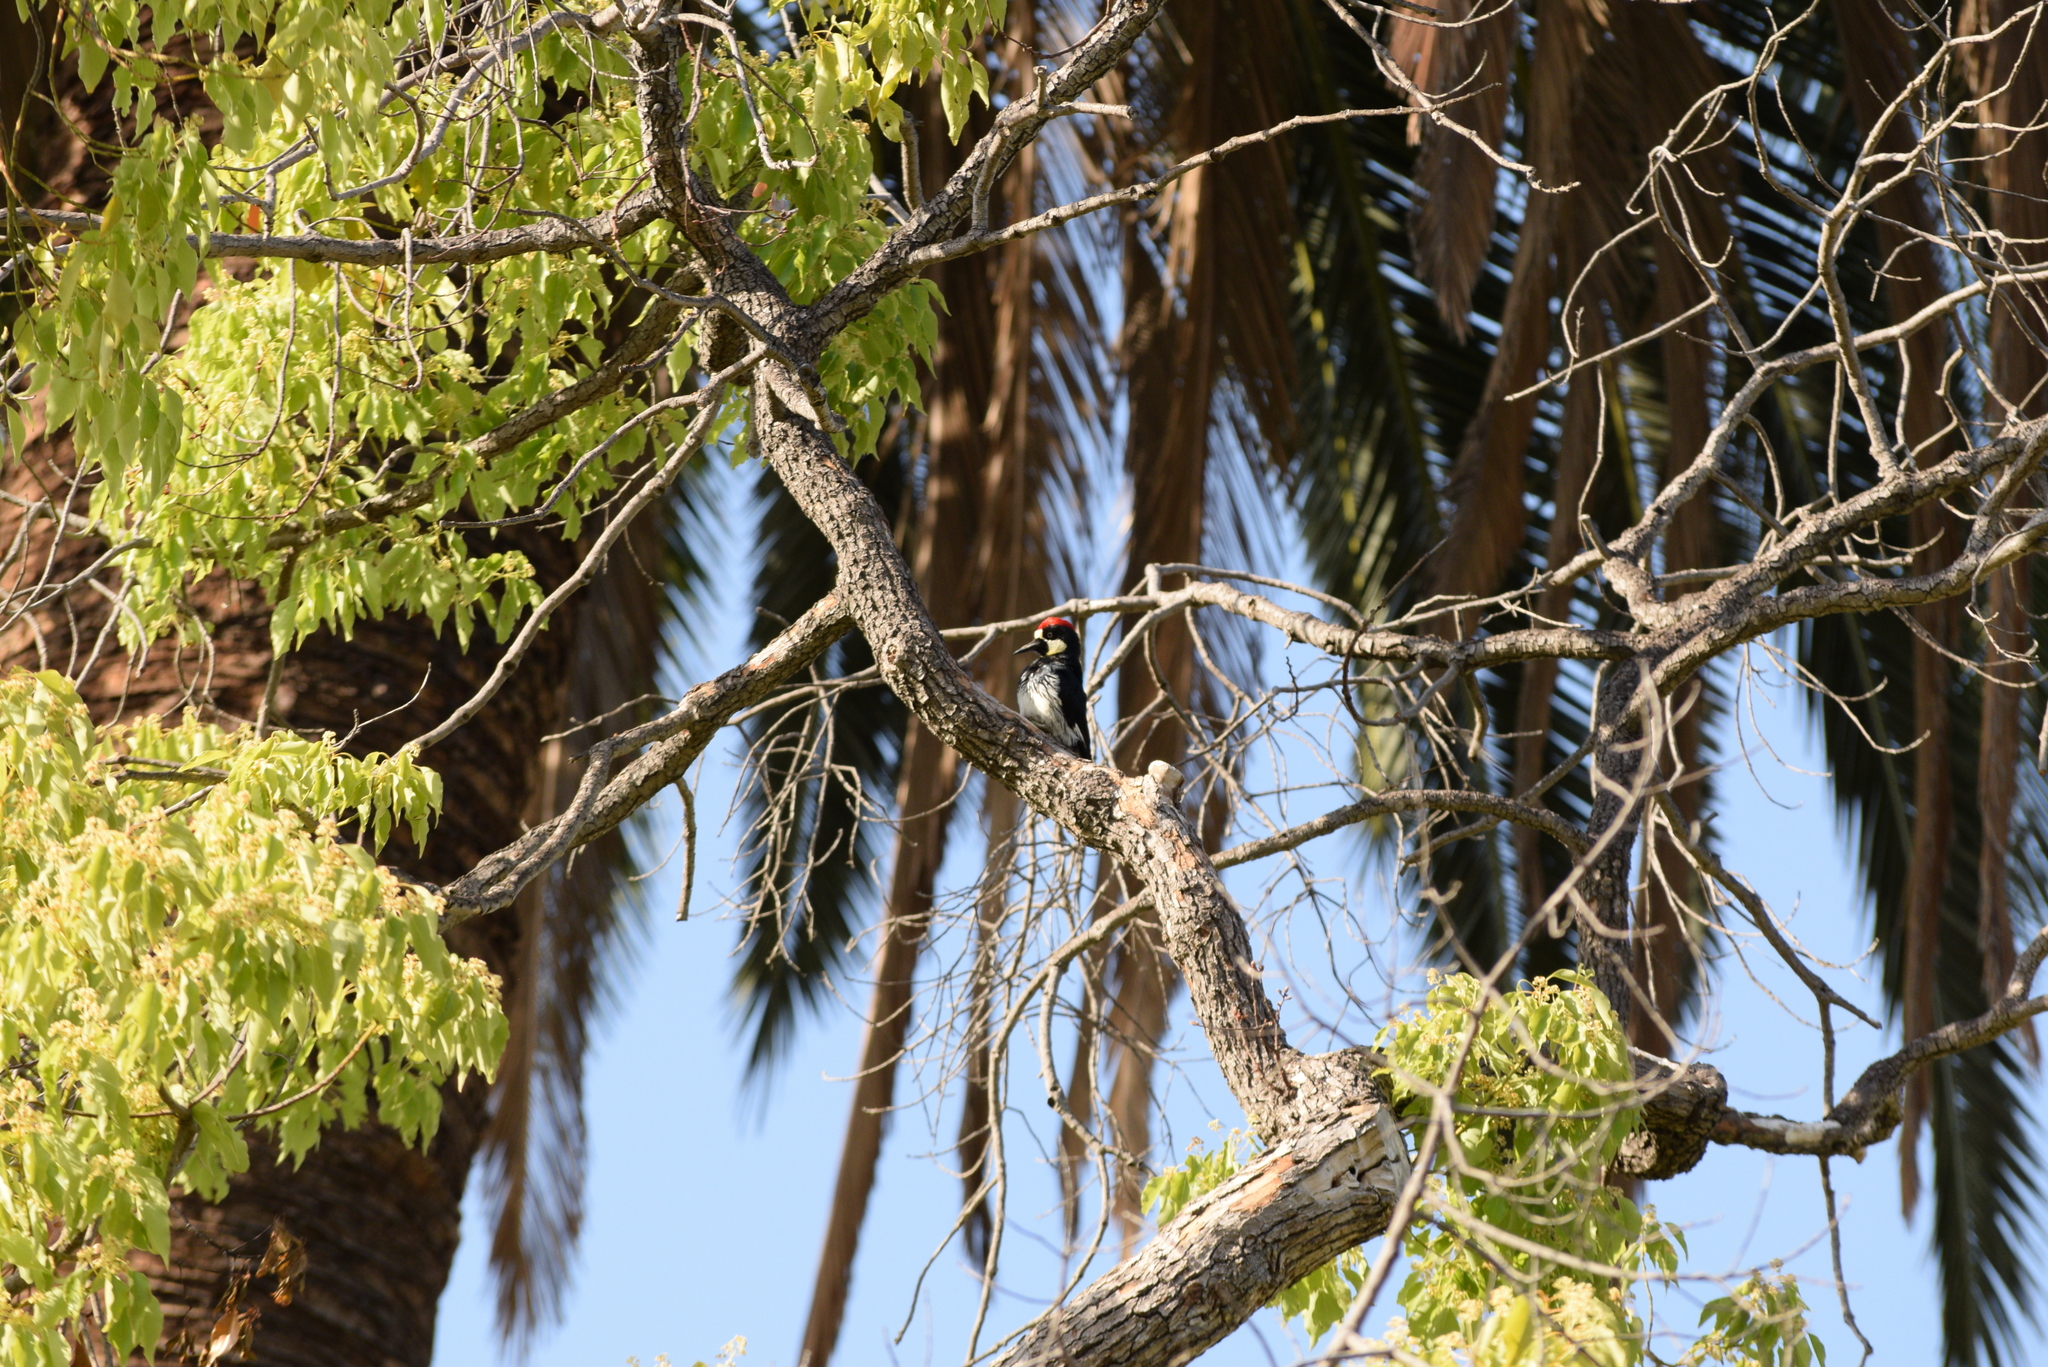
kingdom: Animalia
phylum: Chordata
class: Aves
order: Piciformes
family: Picidae
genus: Melanerpes
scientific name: Melanerpes formicivorus
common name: Acorn woodpecker
